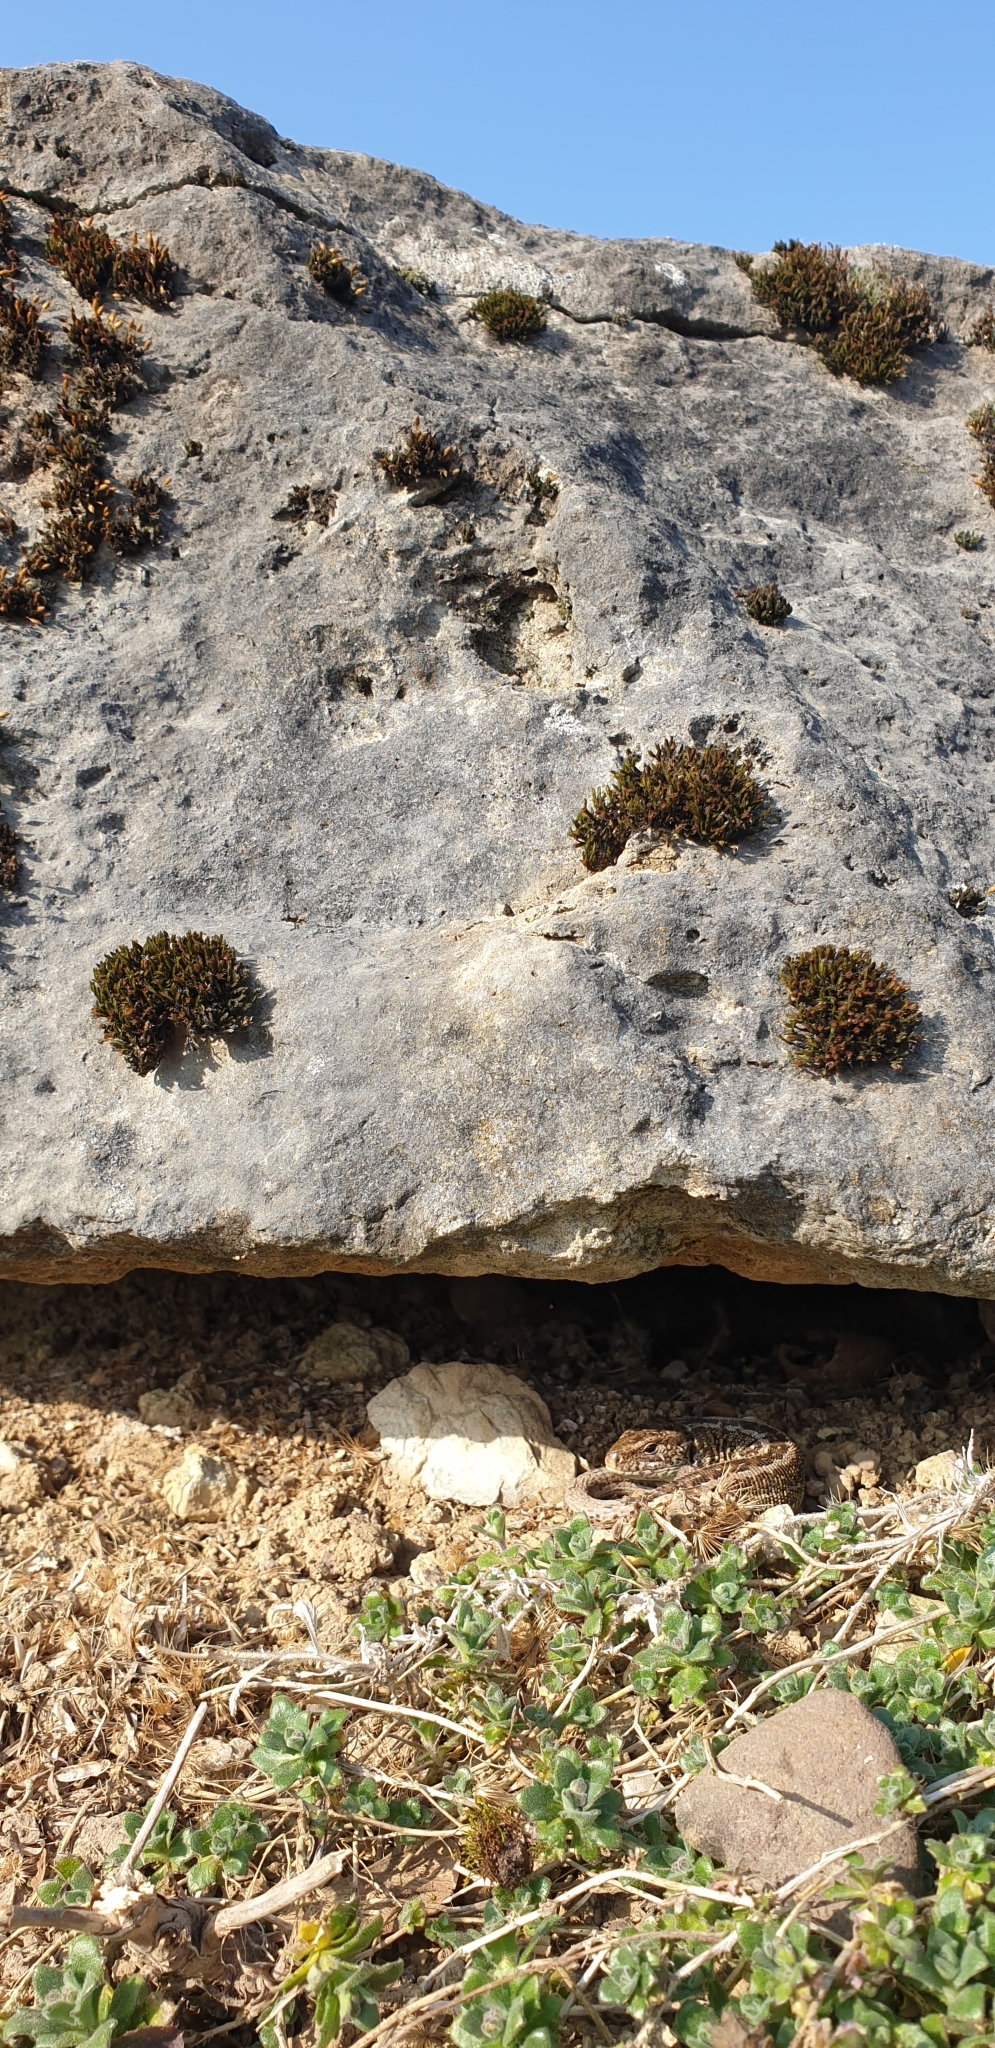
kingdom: Animalia
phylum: Chordata
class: Squamata
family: Lacertidae
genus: Lacerta
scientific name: Lacerta agilis
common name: Sand lizard
